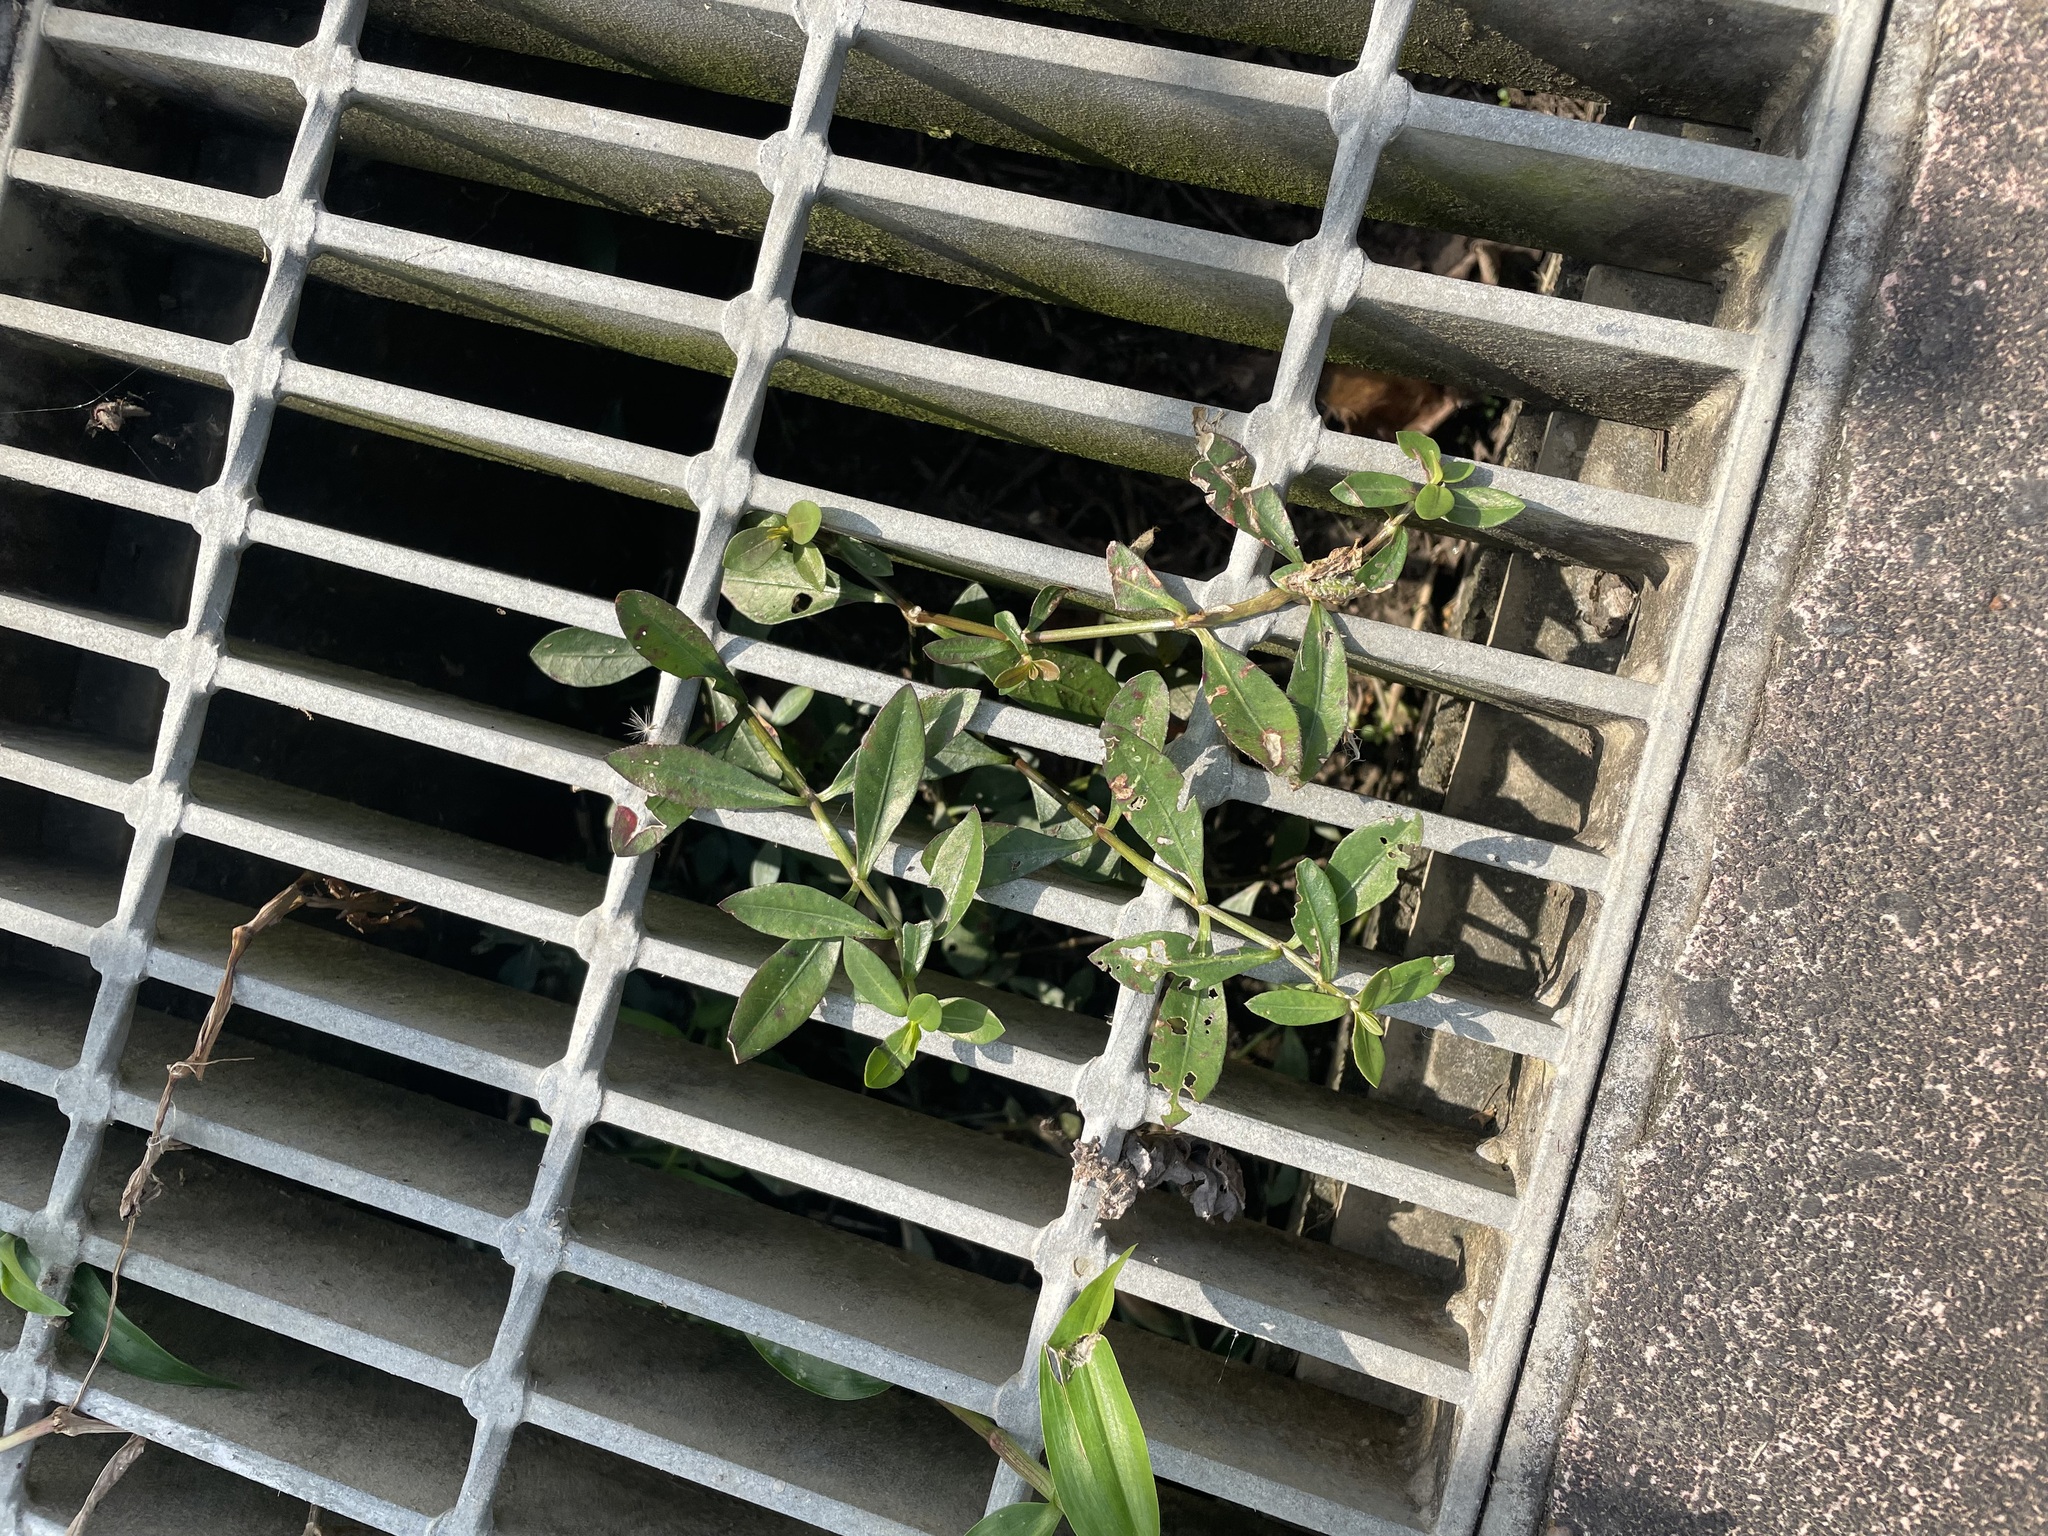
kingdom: Plantae
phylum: Tracheophyta
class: Magnoliopsida
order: Caryophyllales
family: Amaranthaceae
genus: Alternanthera
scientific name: Alternanthera philoxeroides
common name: Alligatorweed
